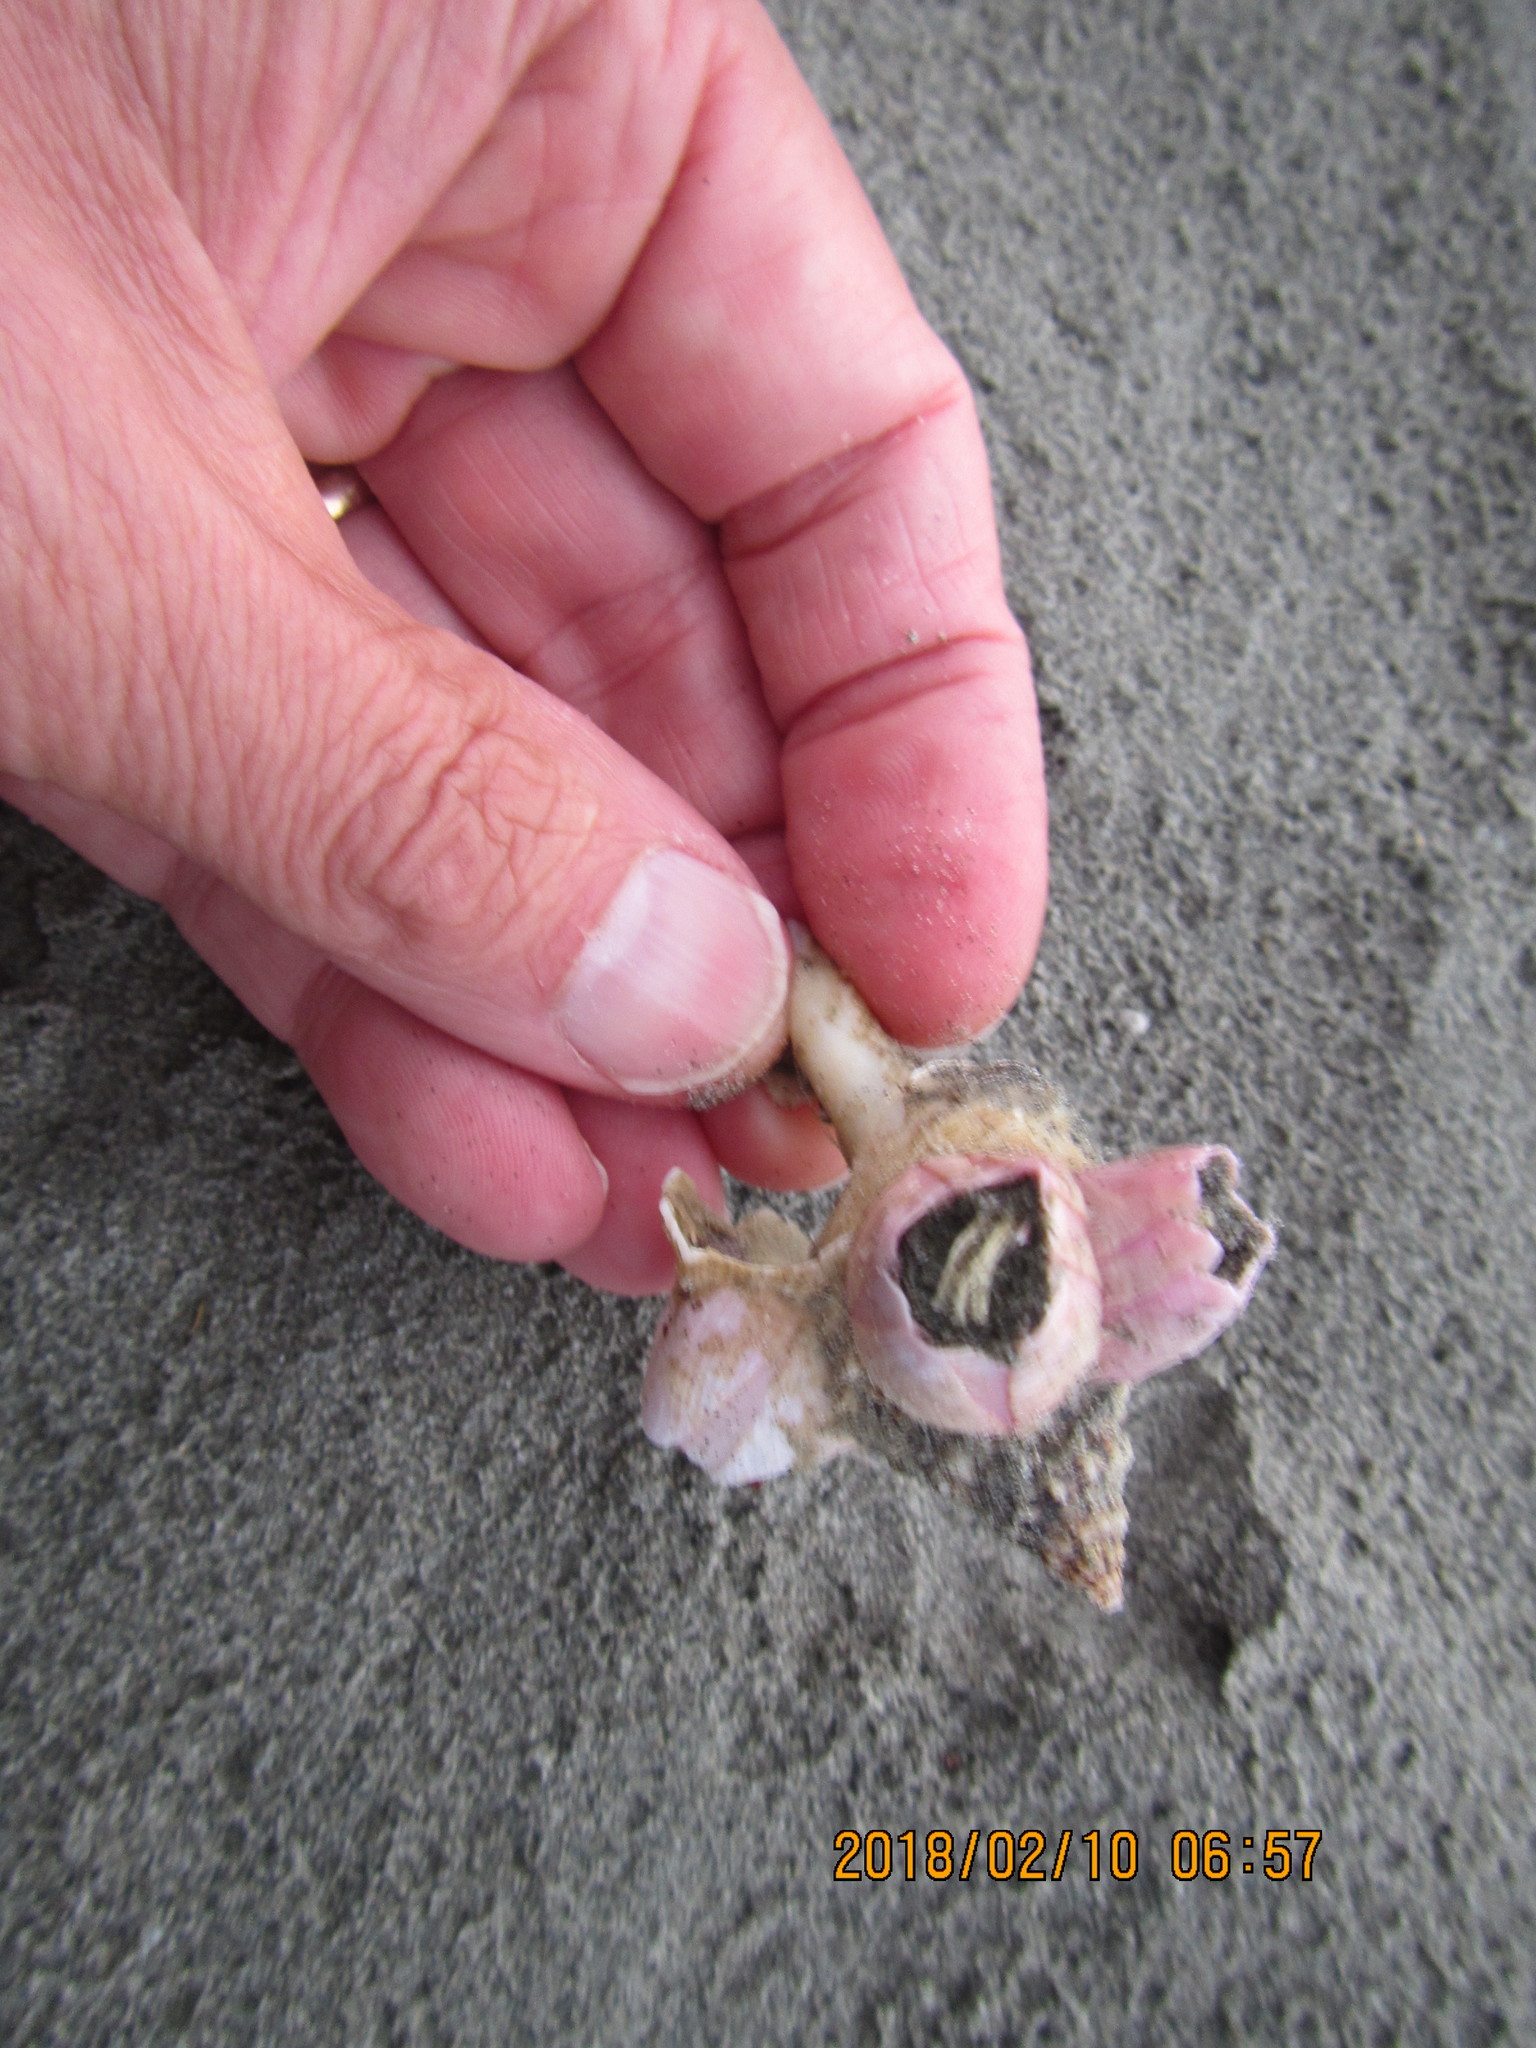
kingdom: Animalia
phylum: Arthropoda
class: Maxillopoda
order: Sessilia
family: Balanidae
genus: Notomegabalanus
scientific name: Notomegabalanus decorus
